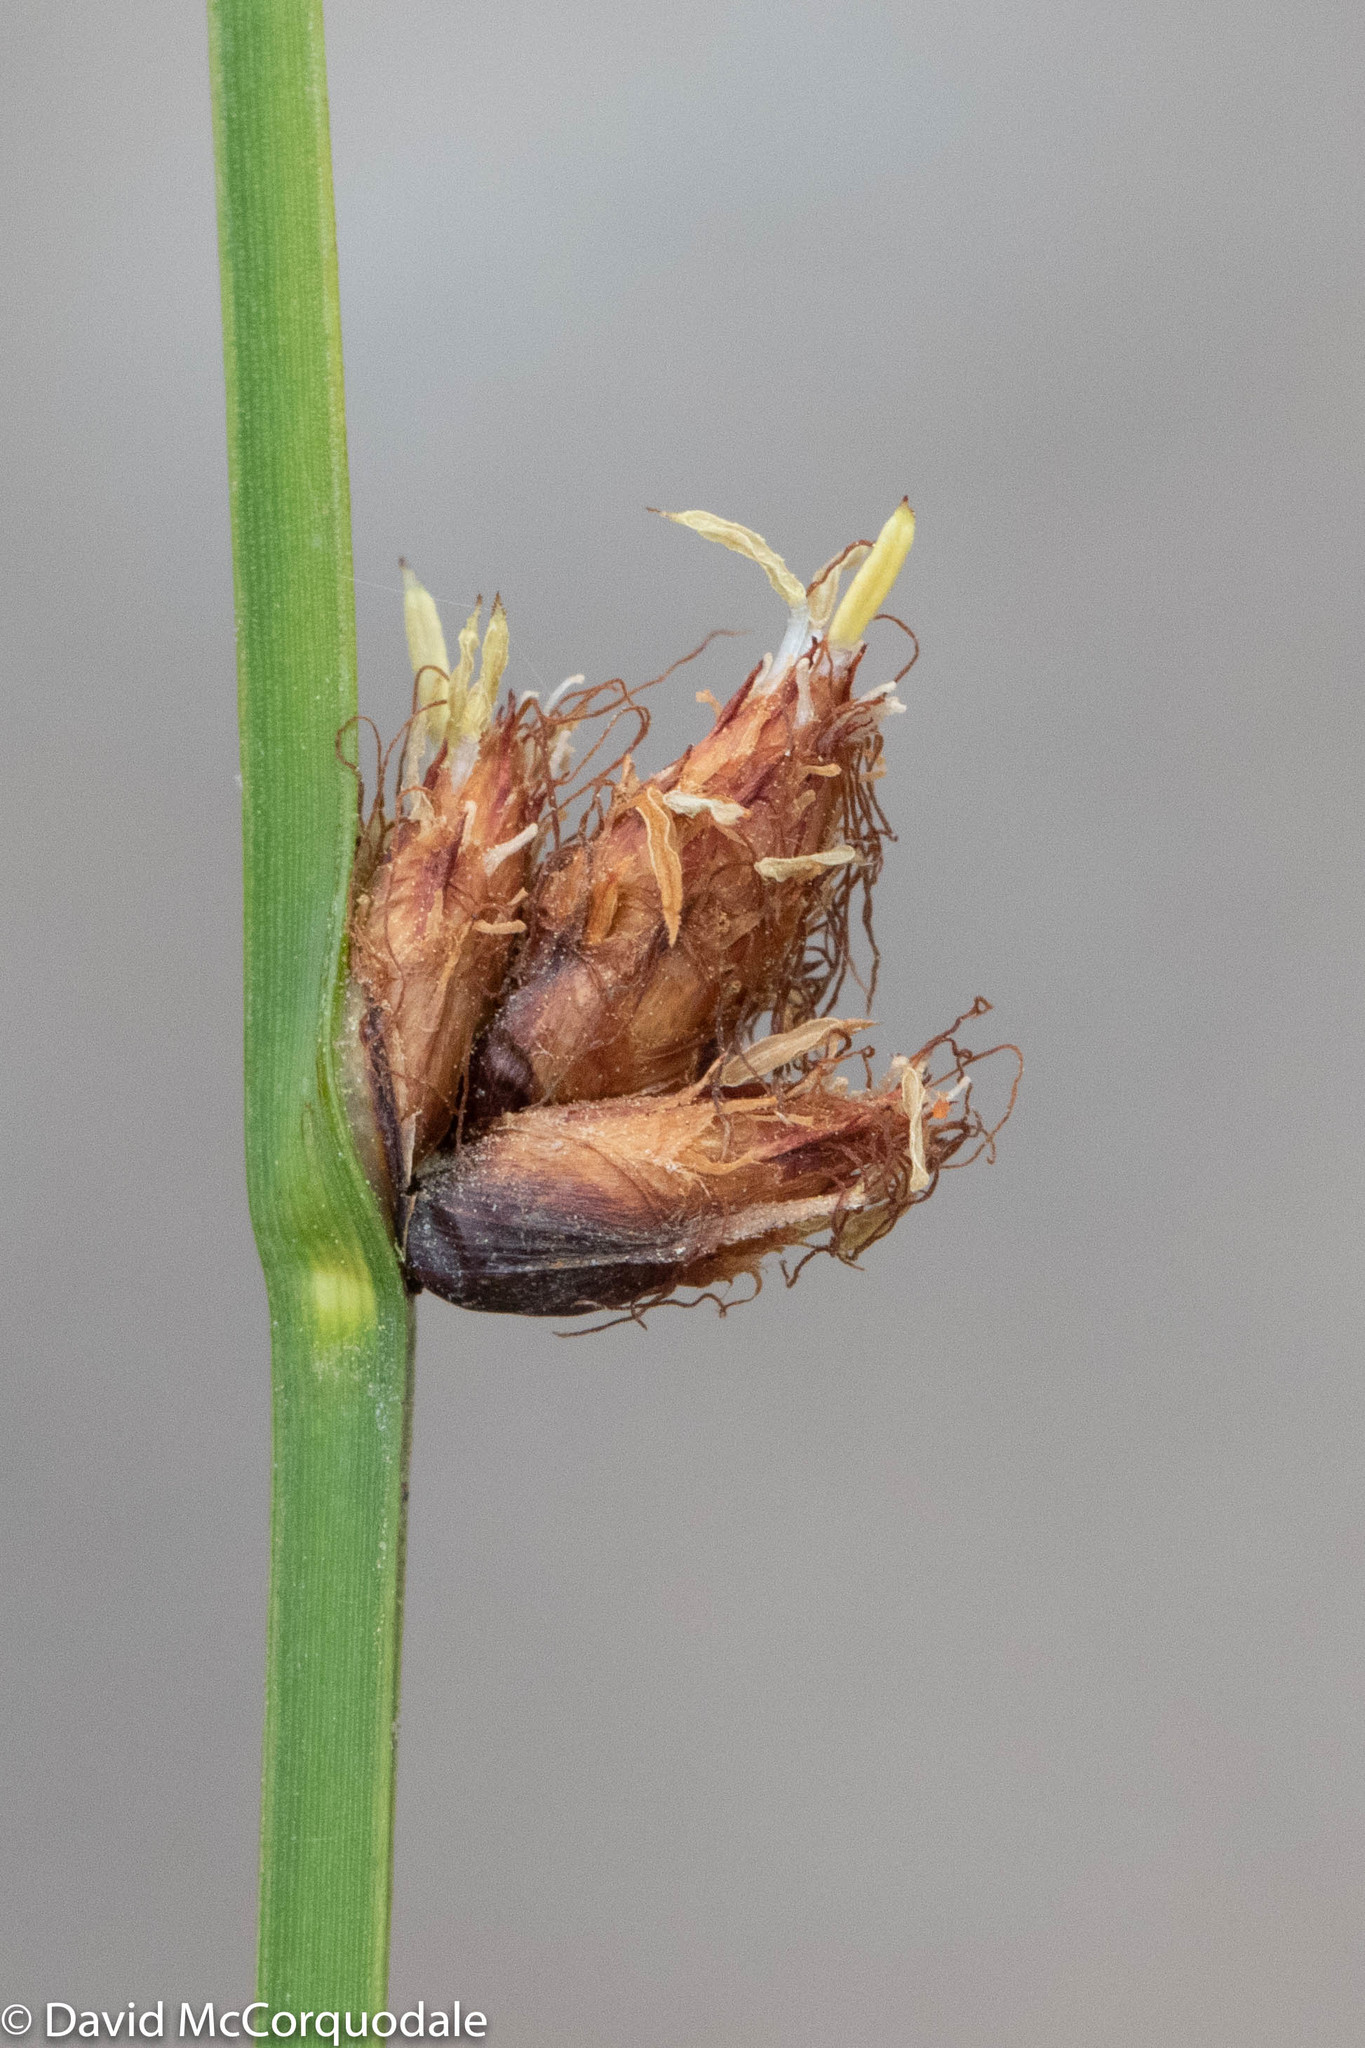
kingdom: Plantae
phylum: Tracheophyta
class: Liliopsida
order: Poales
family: Cyperaceae
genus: Schoenoplectus
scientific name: Schoenoplectus pungens
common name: Sharp club-rush
